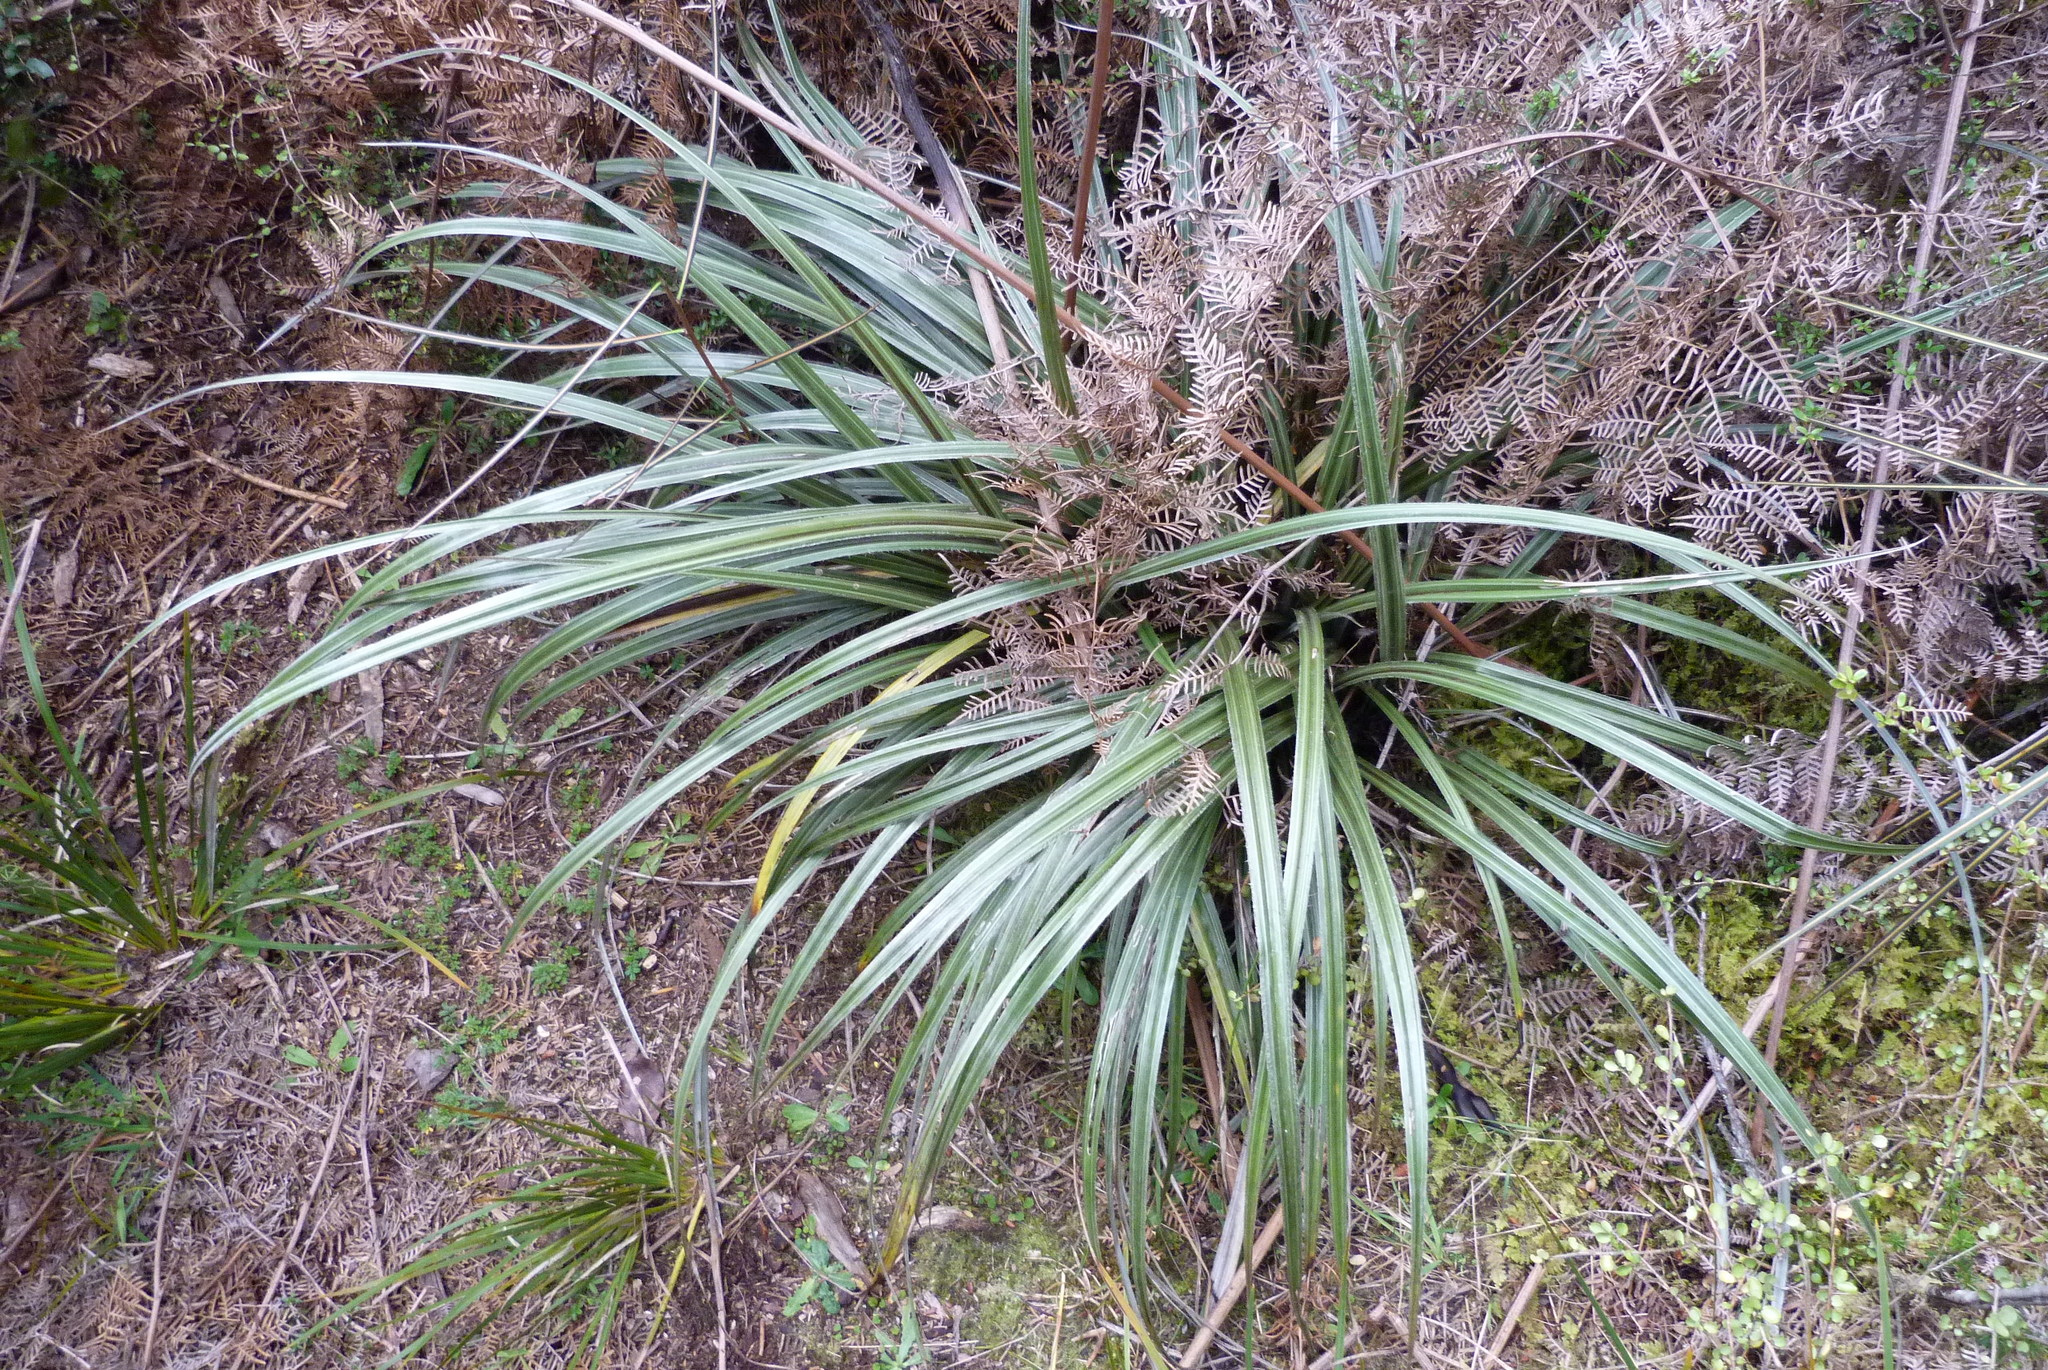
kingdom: Plantae
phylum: Tracheophyta
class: Liliopsida
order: Asparagales
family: Asteliaceae
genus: Astelia
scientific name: Astelia nervosa
